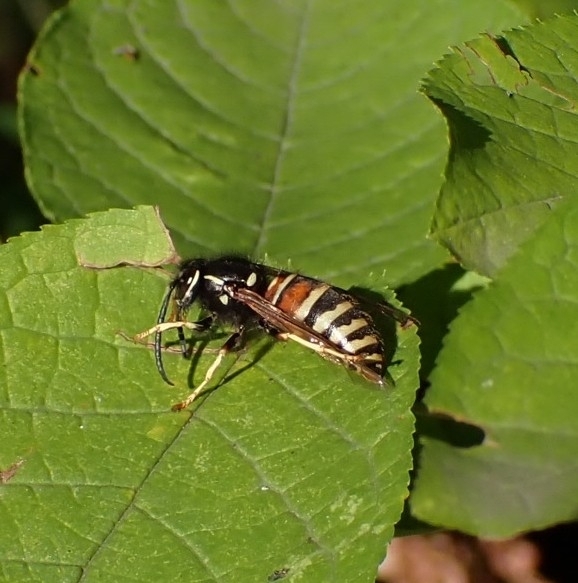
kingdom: Animalia
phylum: Arthropoda
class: Insecta
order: Hymenoptera
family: Vespidae
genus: Vespula
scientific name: Vespula rufa
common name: Red wasp
